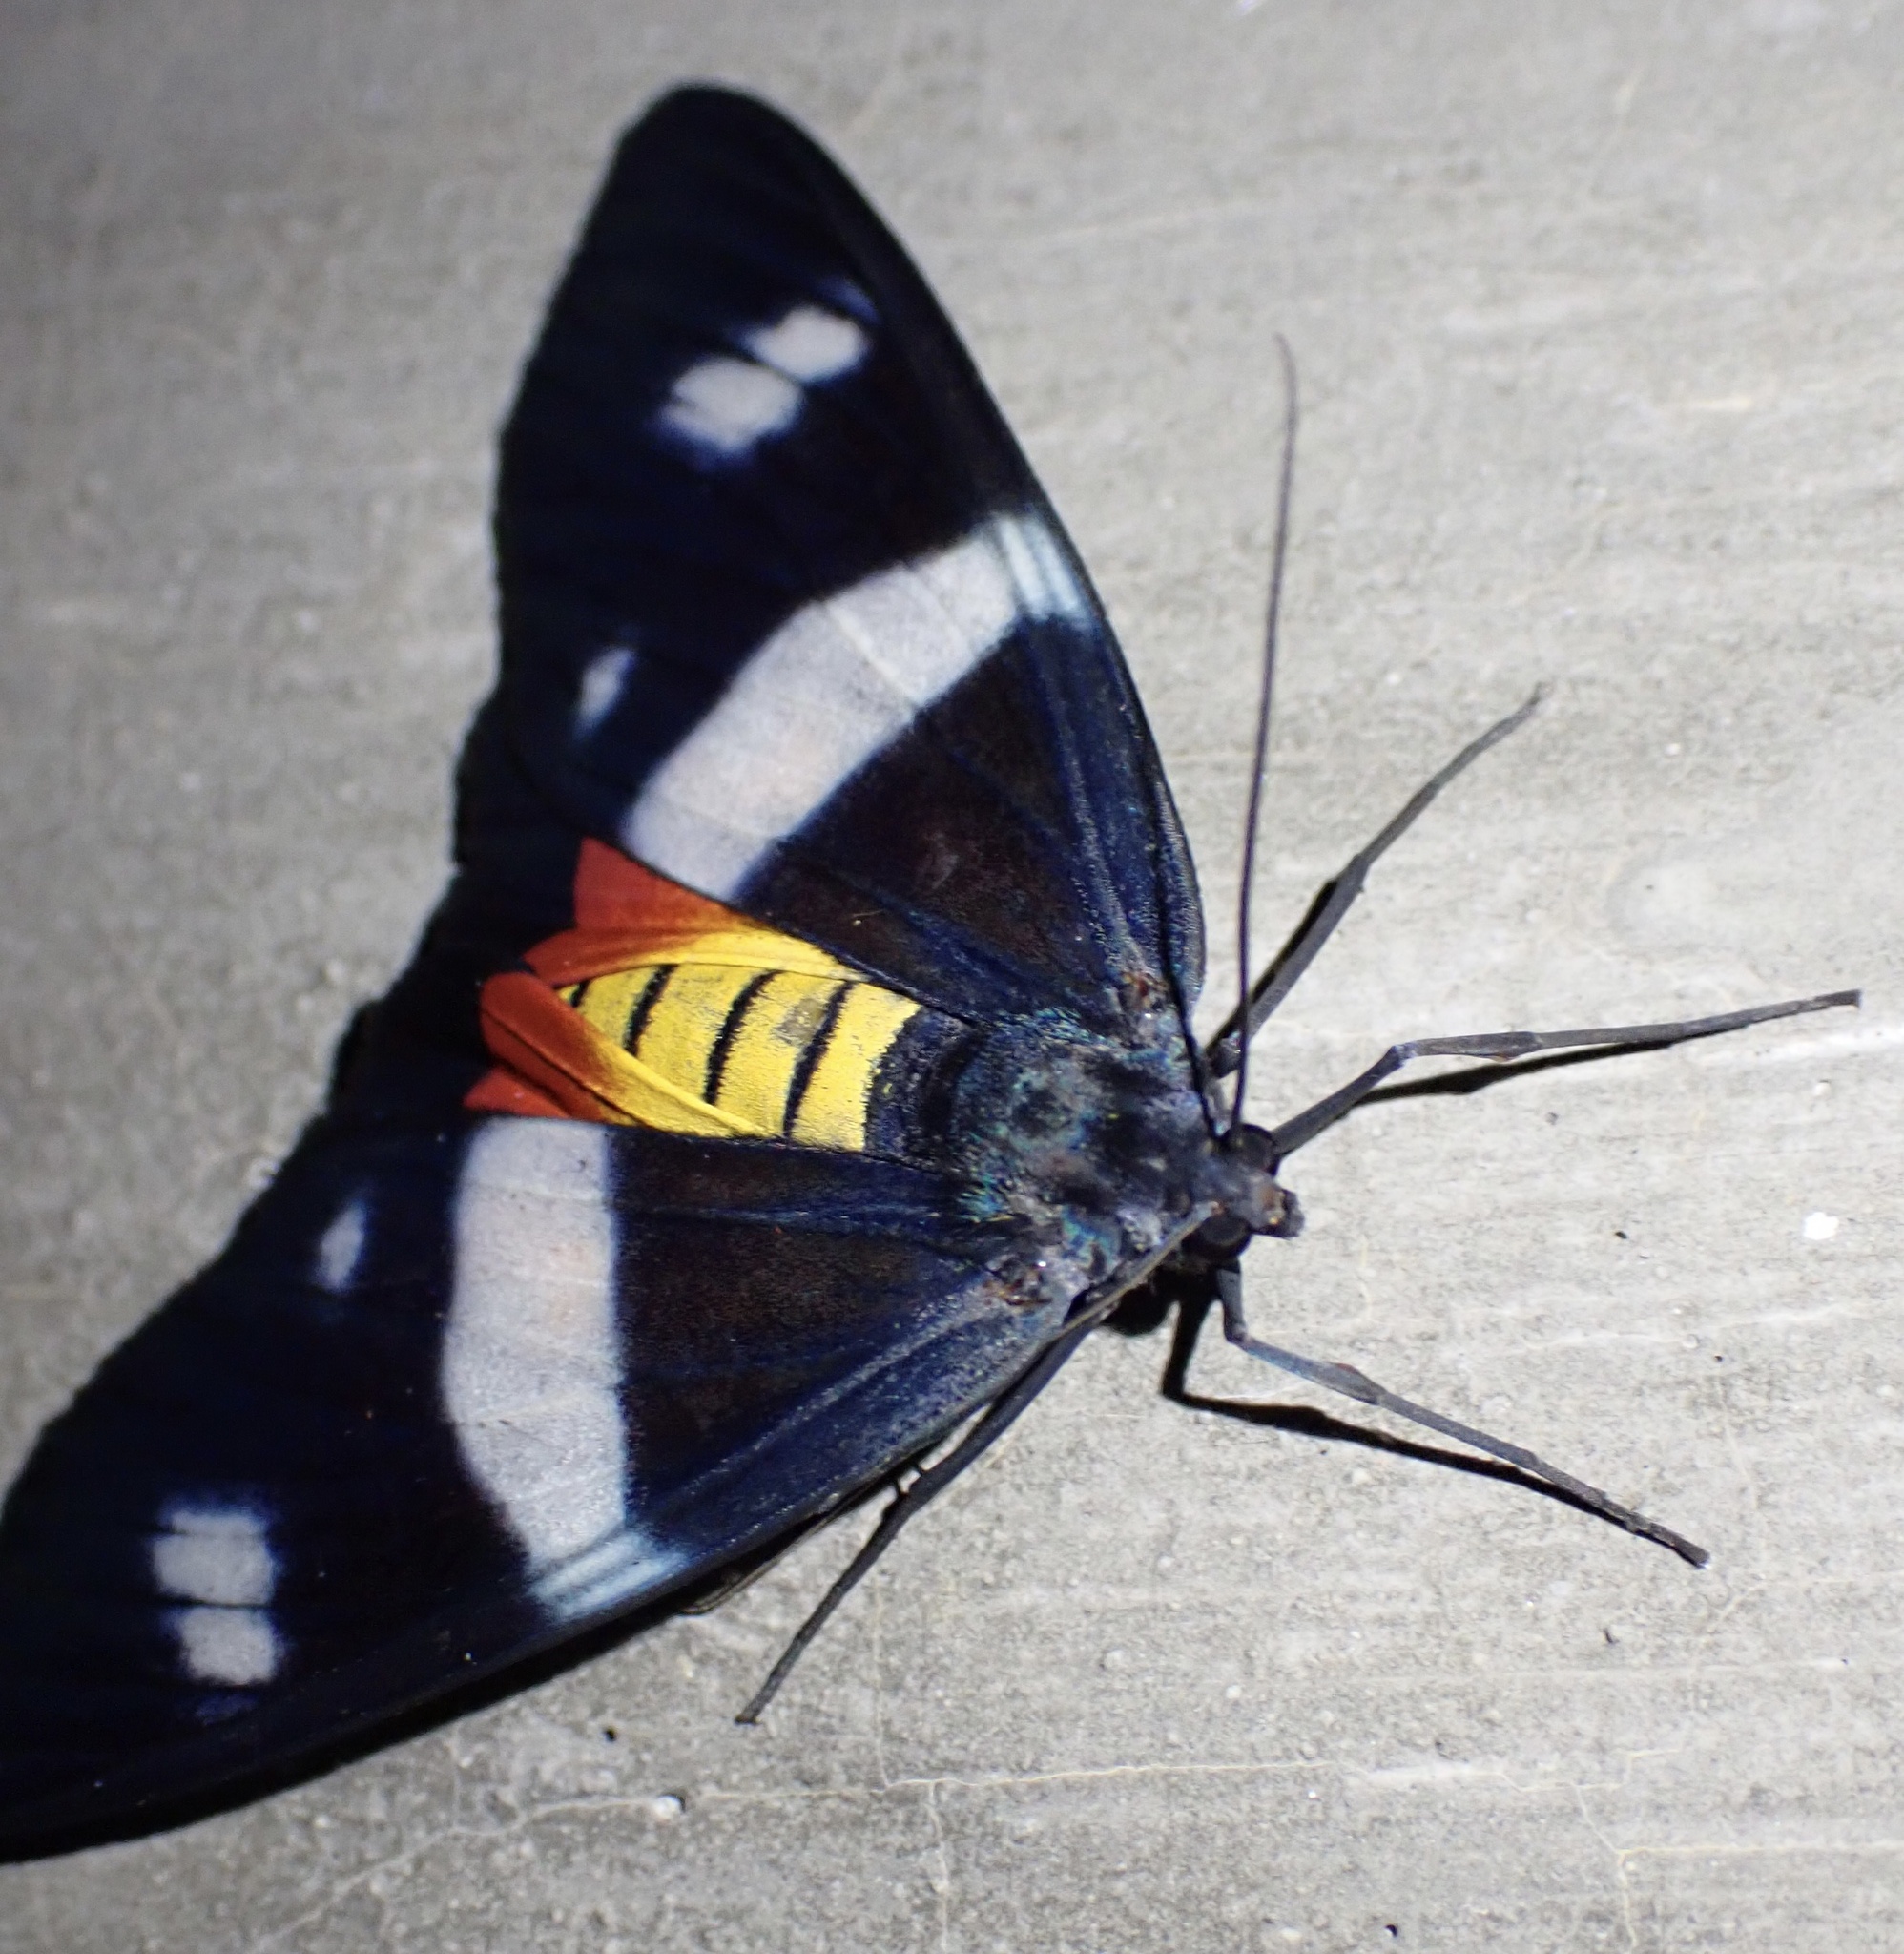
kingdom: Animalia
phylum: Arthropoda
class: Insecta
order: Lepidoptera
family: Geometridae
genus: Callhistia
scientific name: Callhistia
